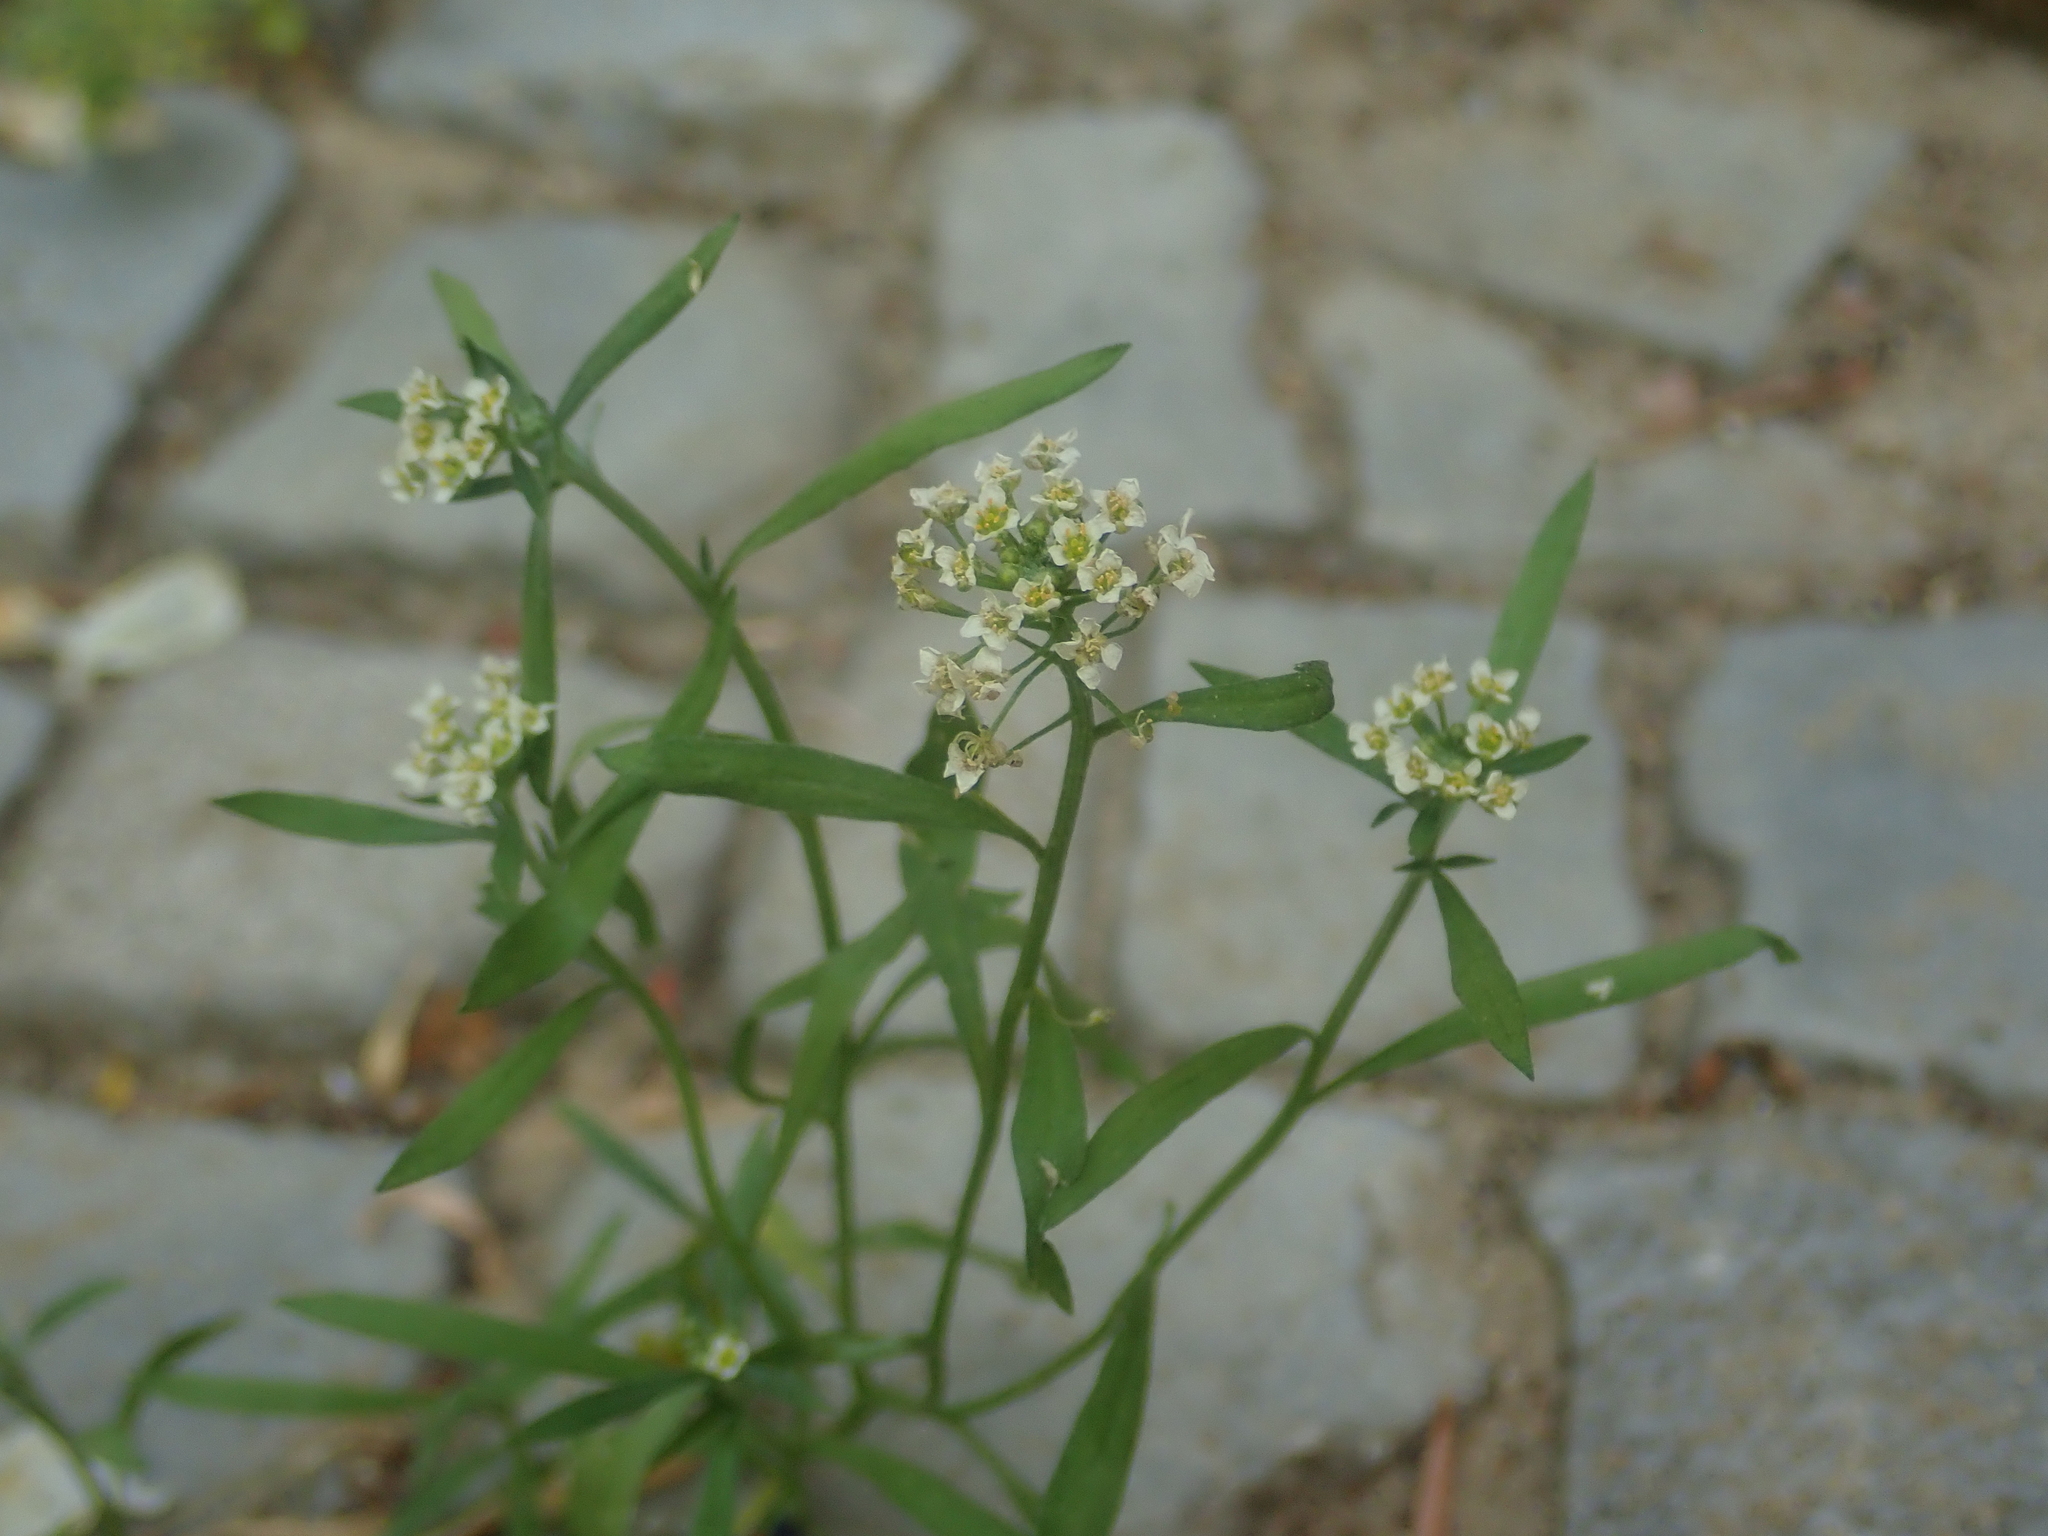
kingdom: Plantae
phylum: Tracheophyta
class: Magnoliopsida
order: Brassicales
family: Brassicaceae
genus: Lobularia
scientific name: Lobularia maritima
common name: Sweet alison
